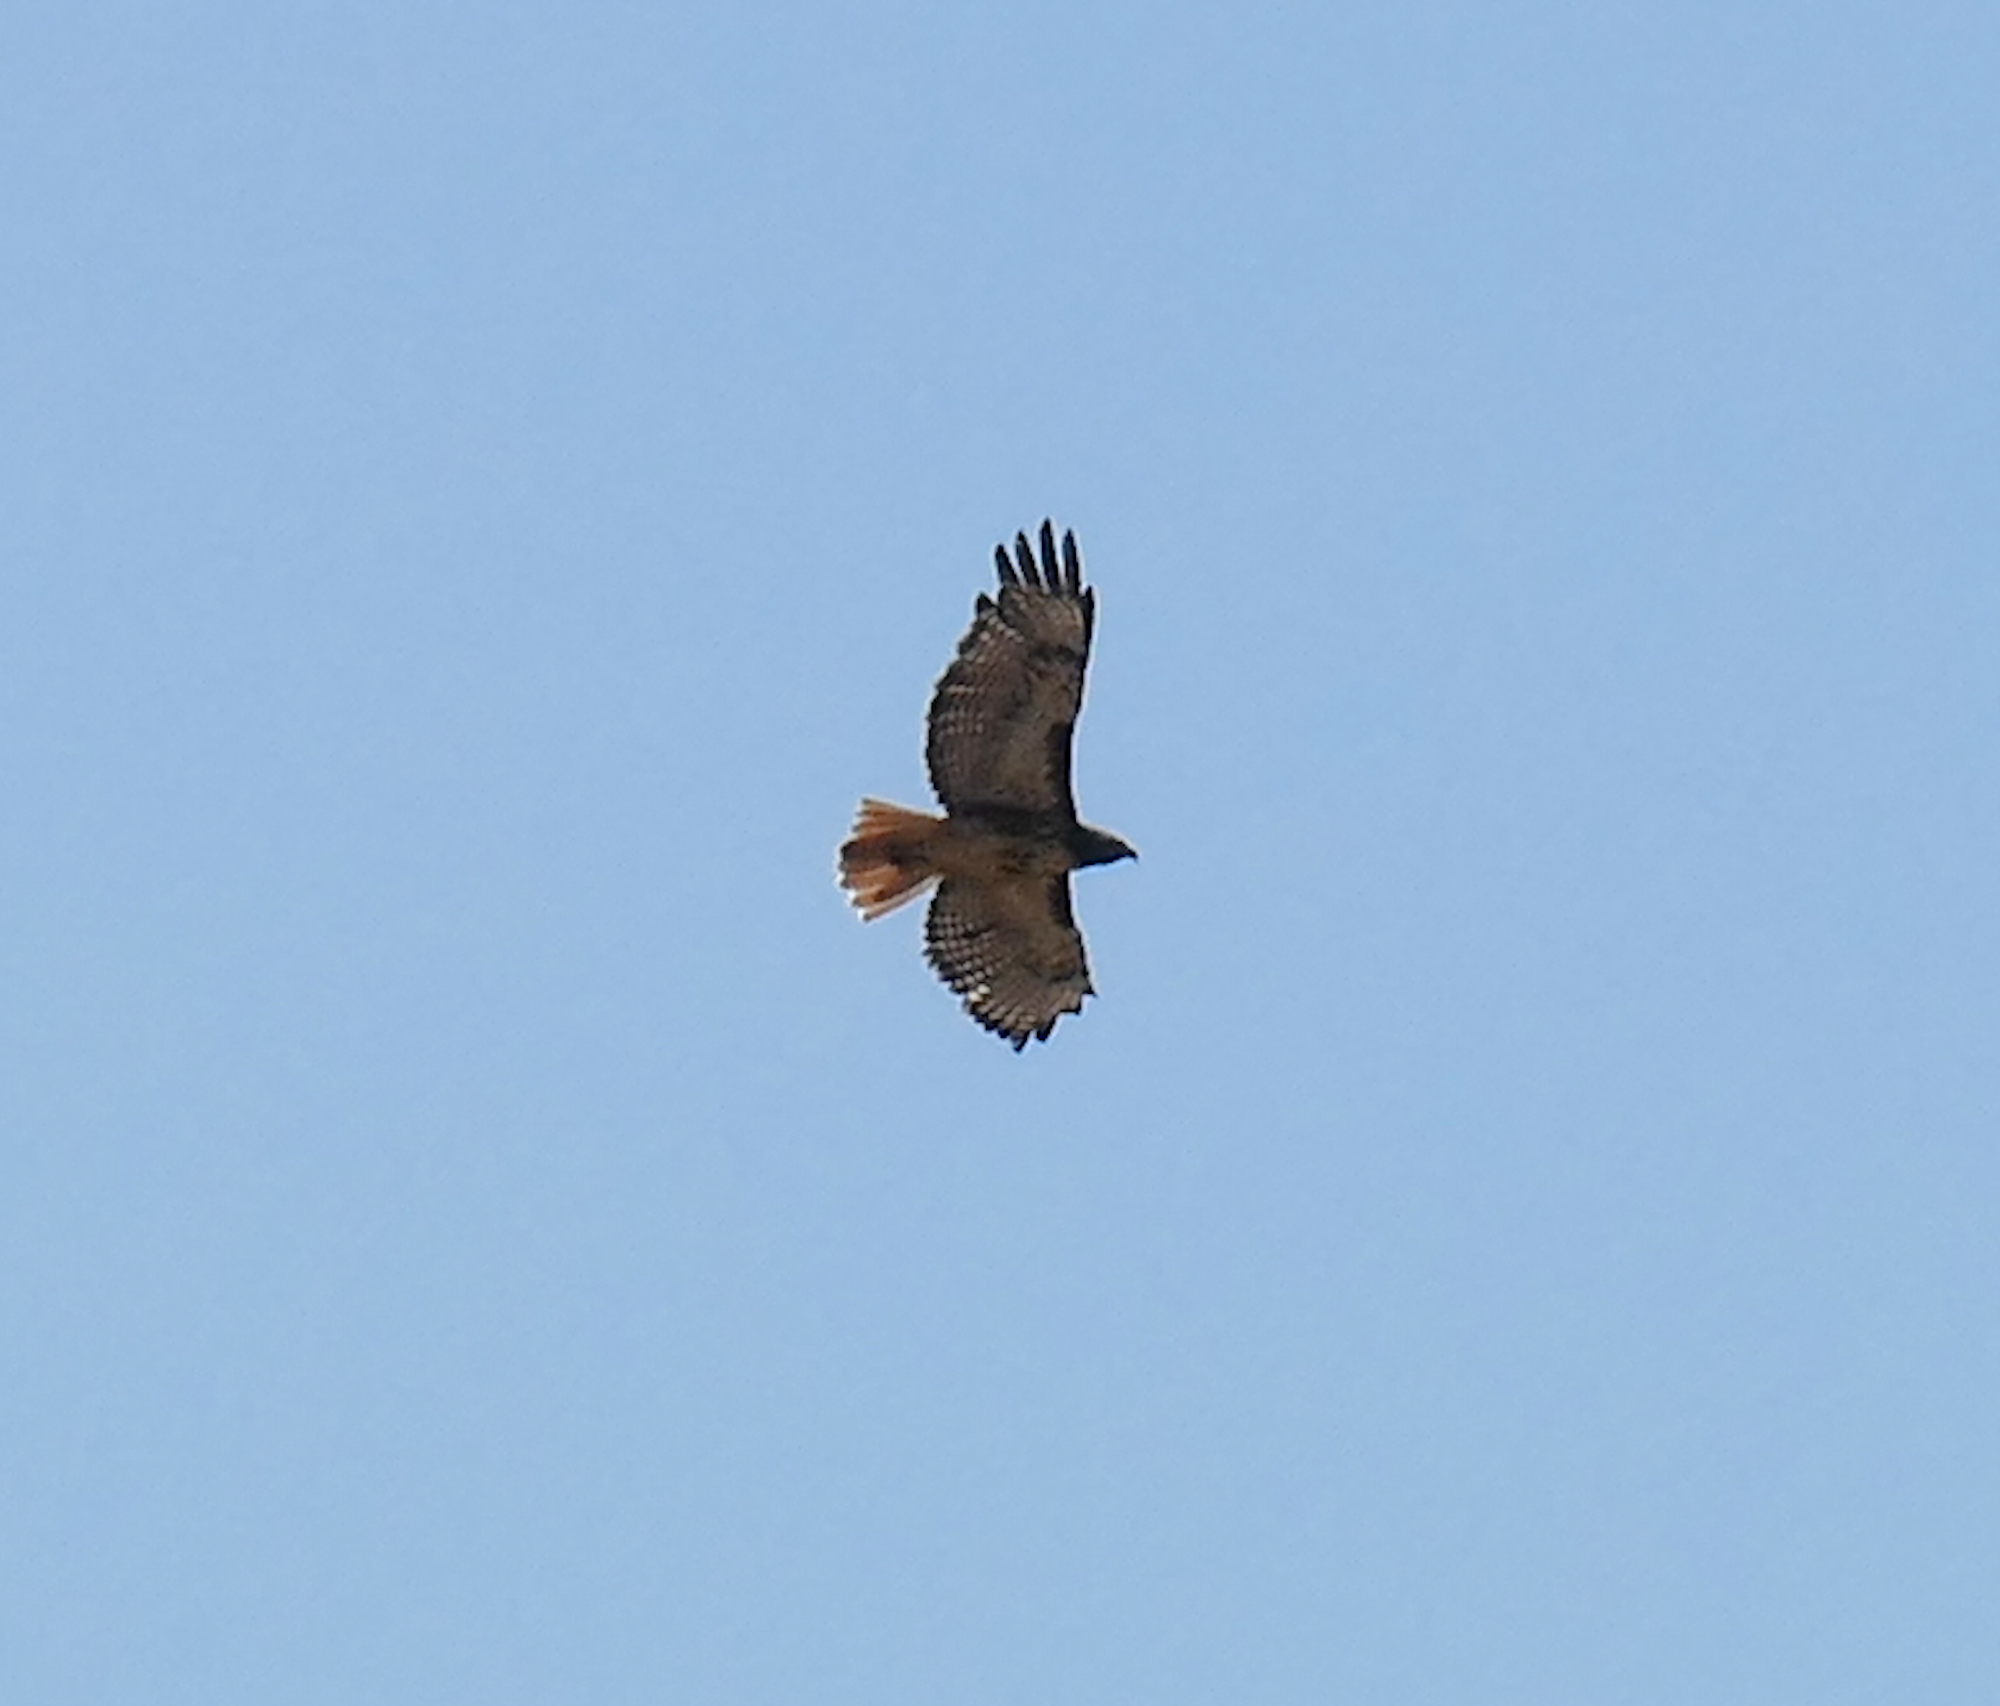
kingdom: Animalia
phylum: Chordata
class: Aves
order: Accipitriformes
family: Accipitridae
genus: Buteo
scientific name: Buteo jamaicensis
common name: Red-tailed hawk
